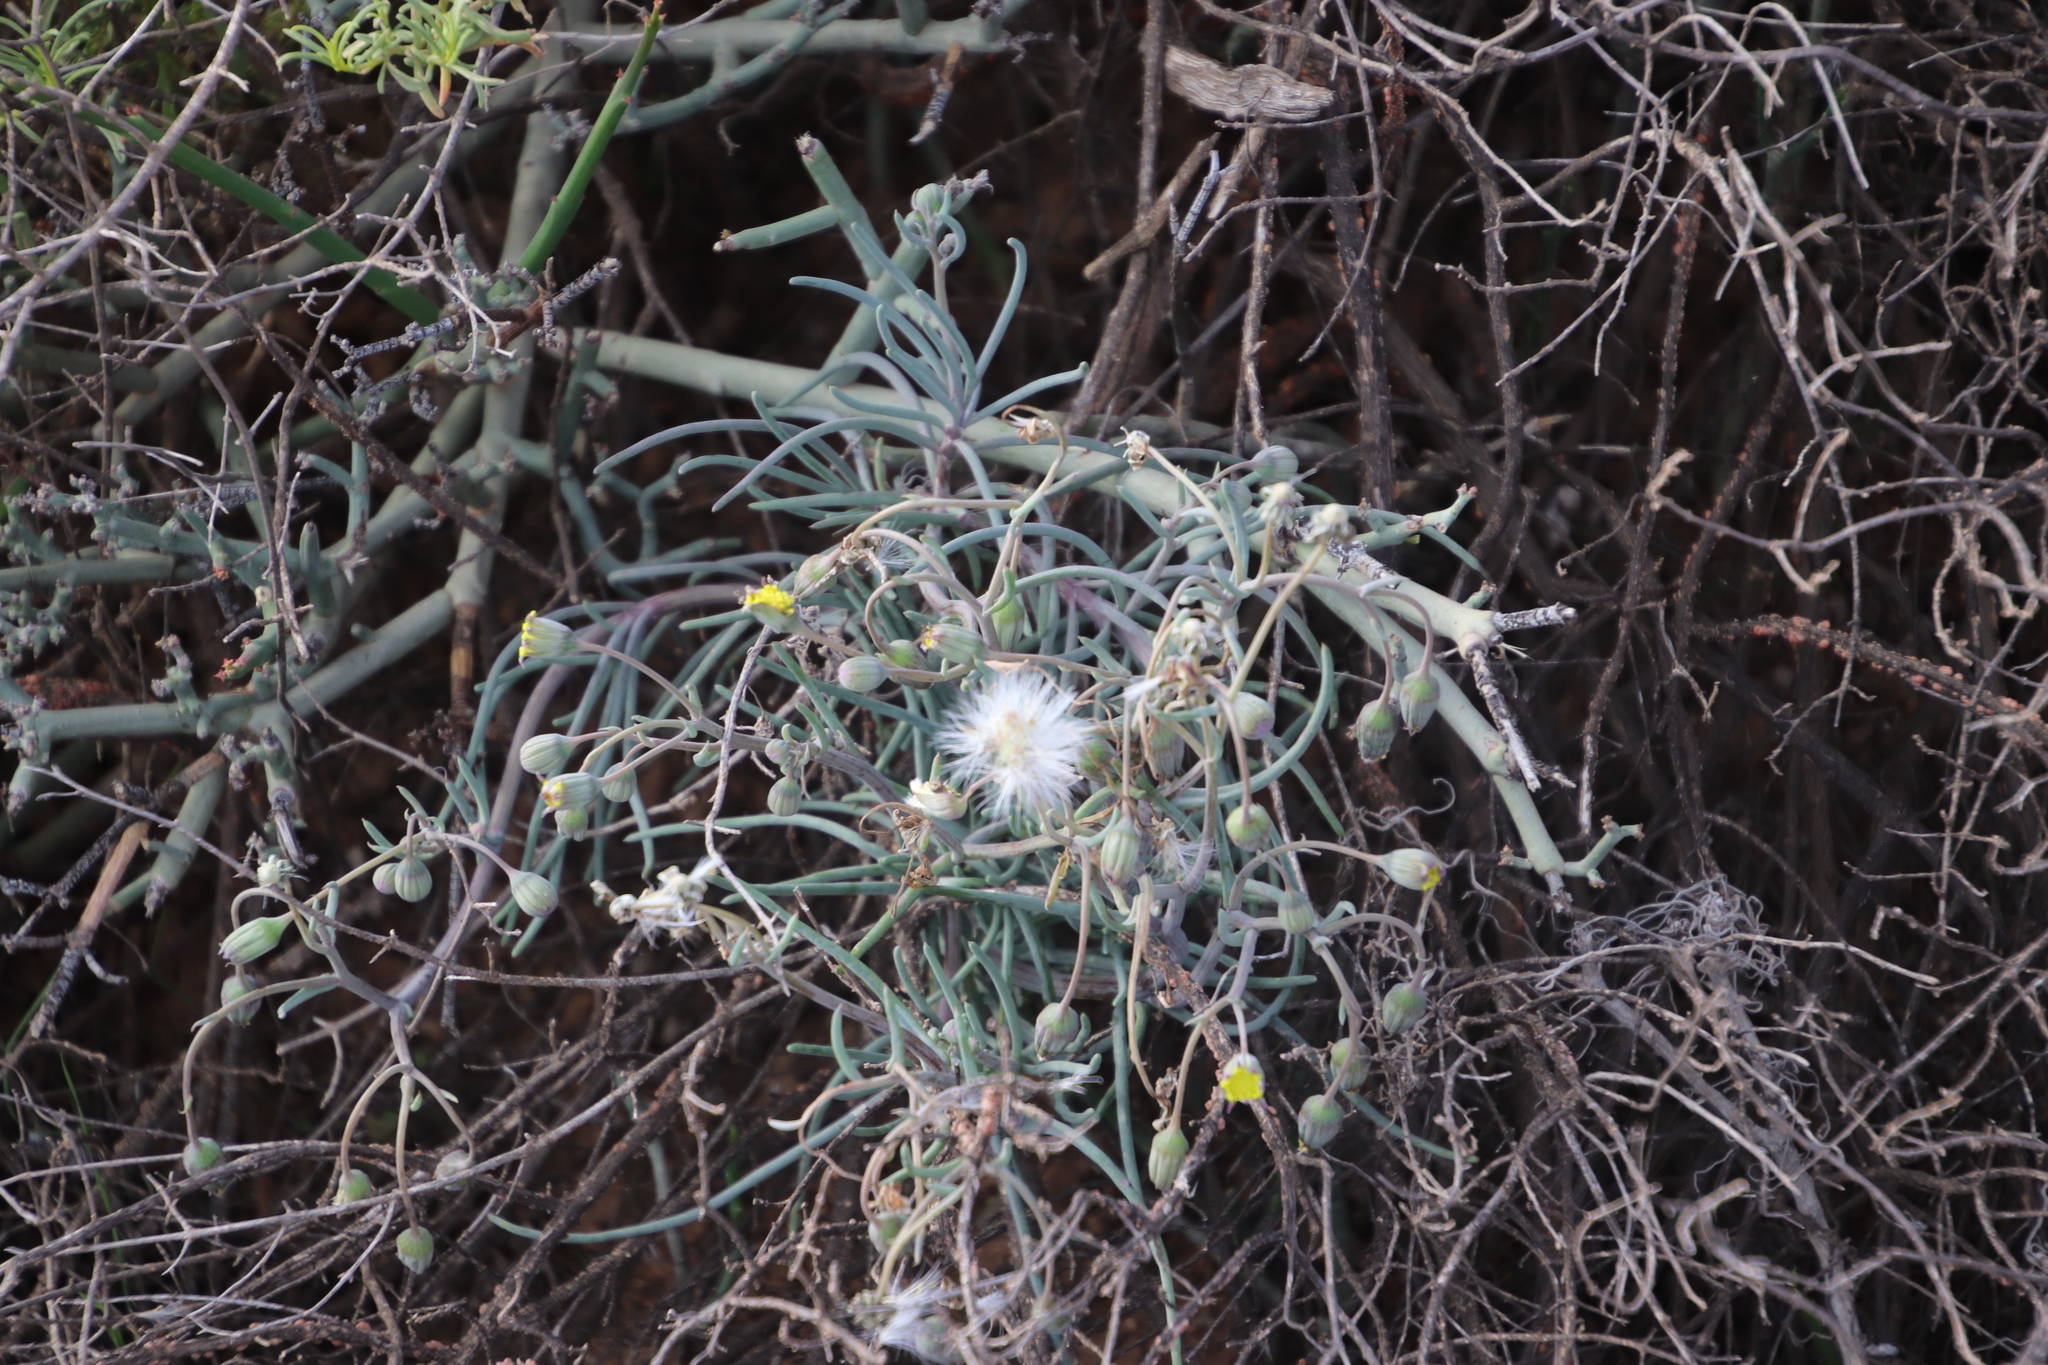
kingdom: Plantae
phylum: Tracheophyta
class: Magnoliopsida
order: Asterales
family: Asteraceae
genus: Crassothonna
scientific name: Crassothonna protecta
